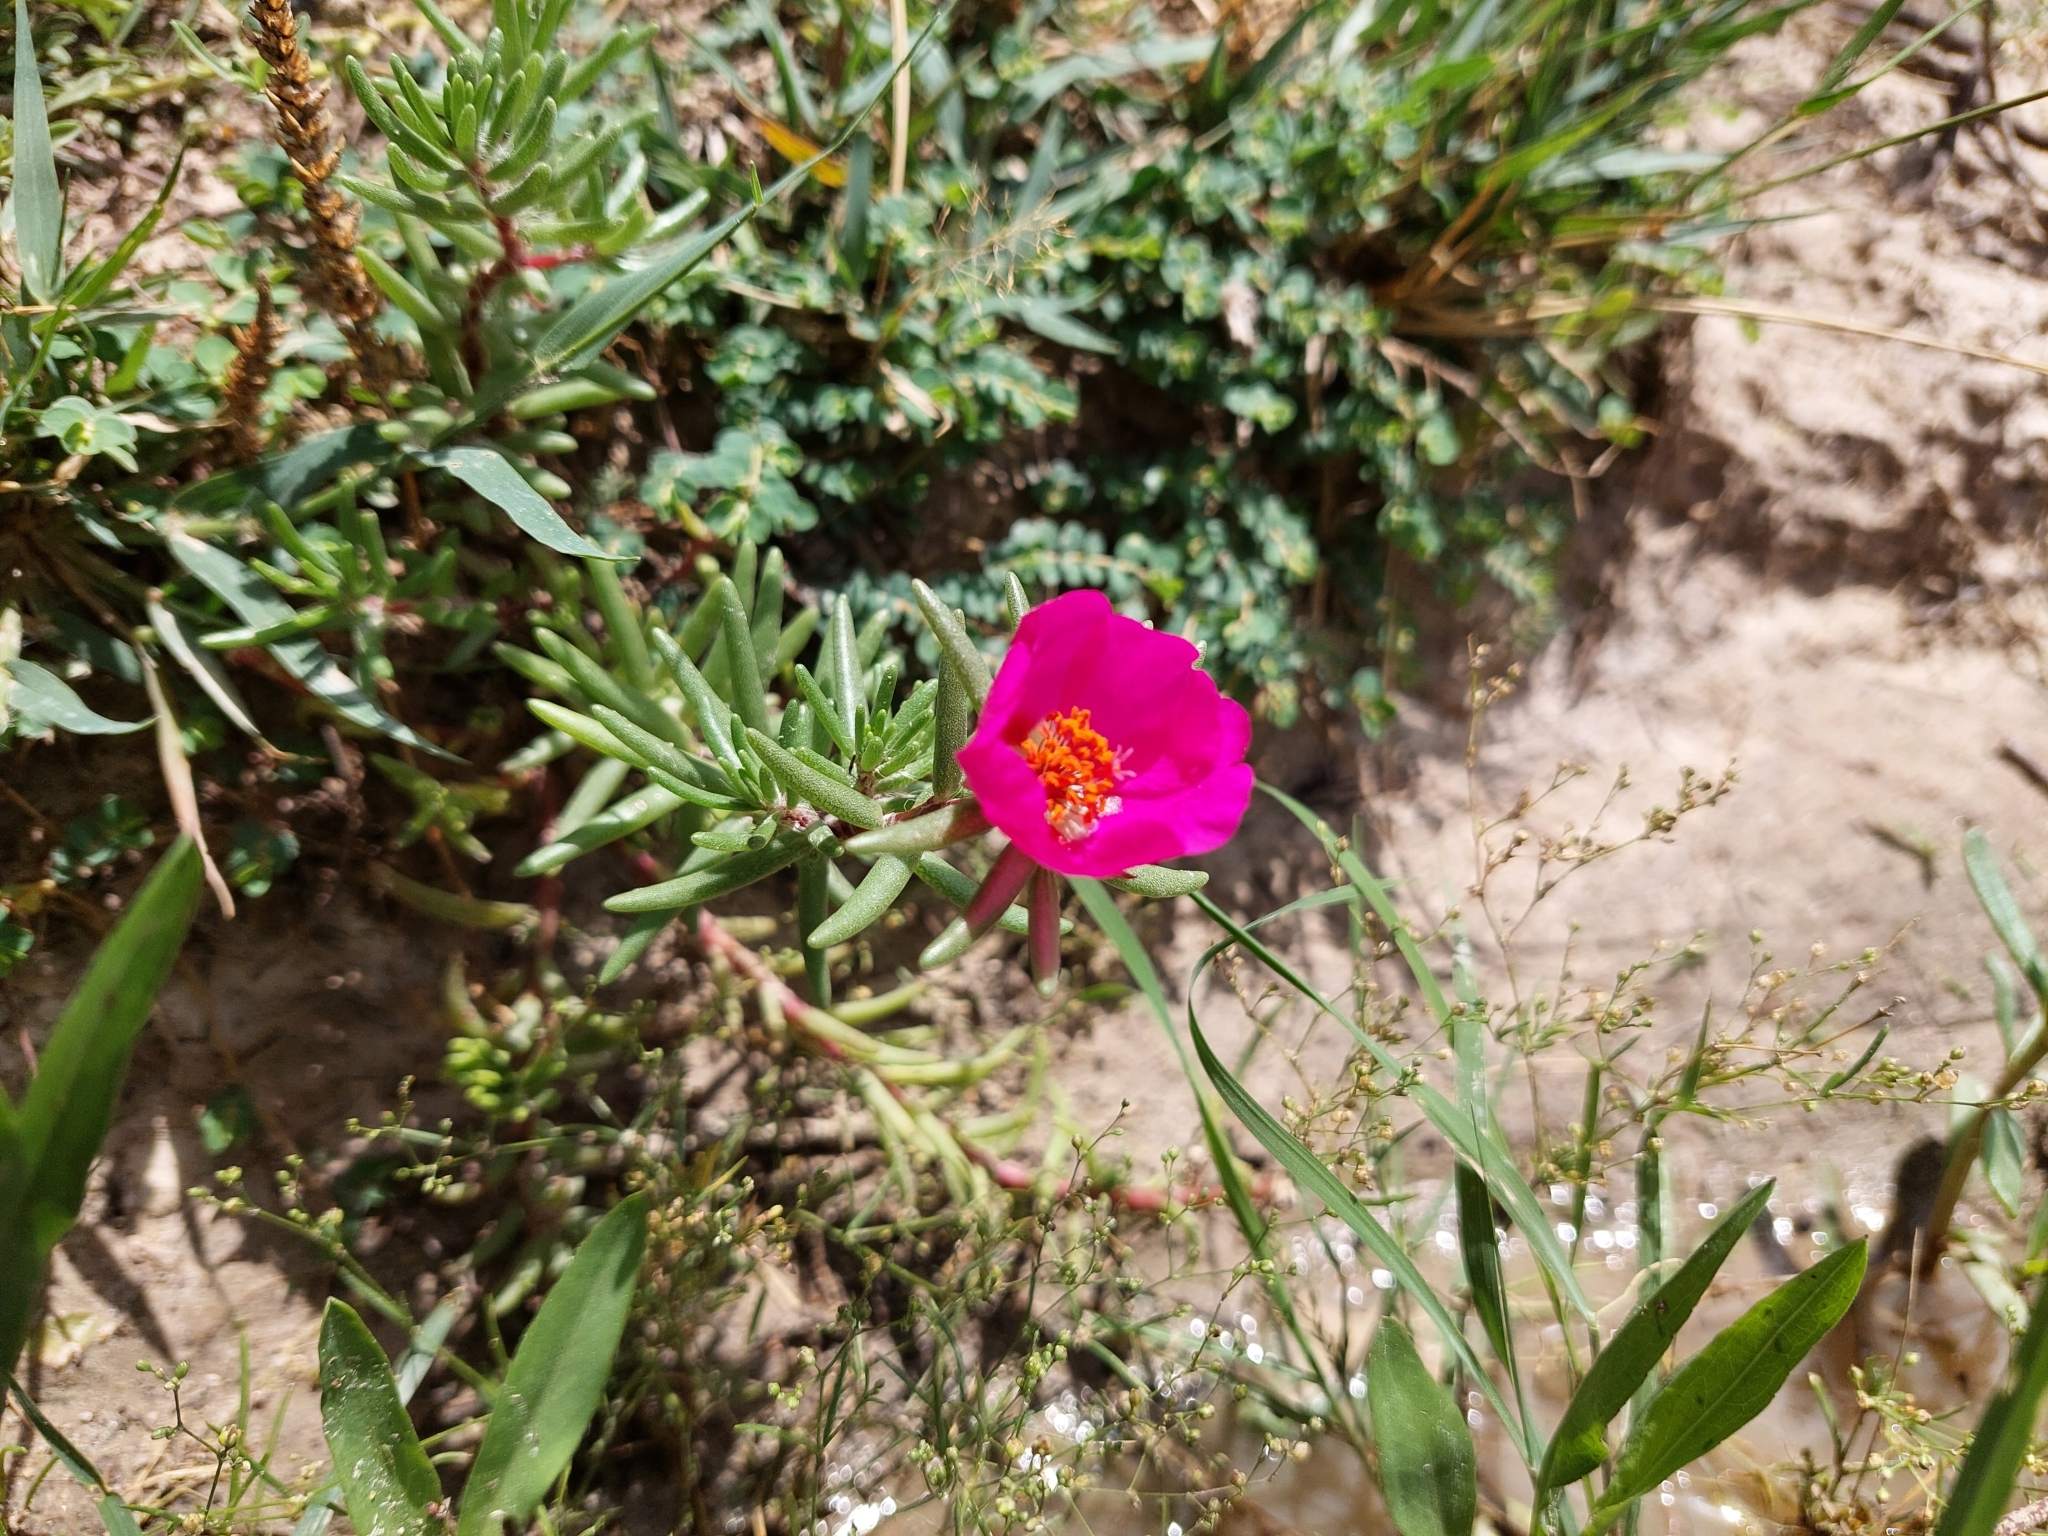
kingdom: Plantae
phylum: Tracheophyta
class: Magnoliopsida
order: Caryophyllales
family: Portulacaceae
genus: Portulaca
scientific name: Portulaca grandiflora
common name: Moss-rose
